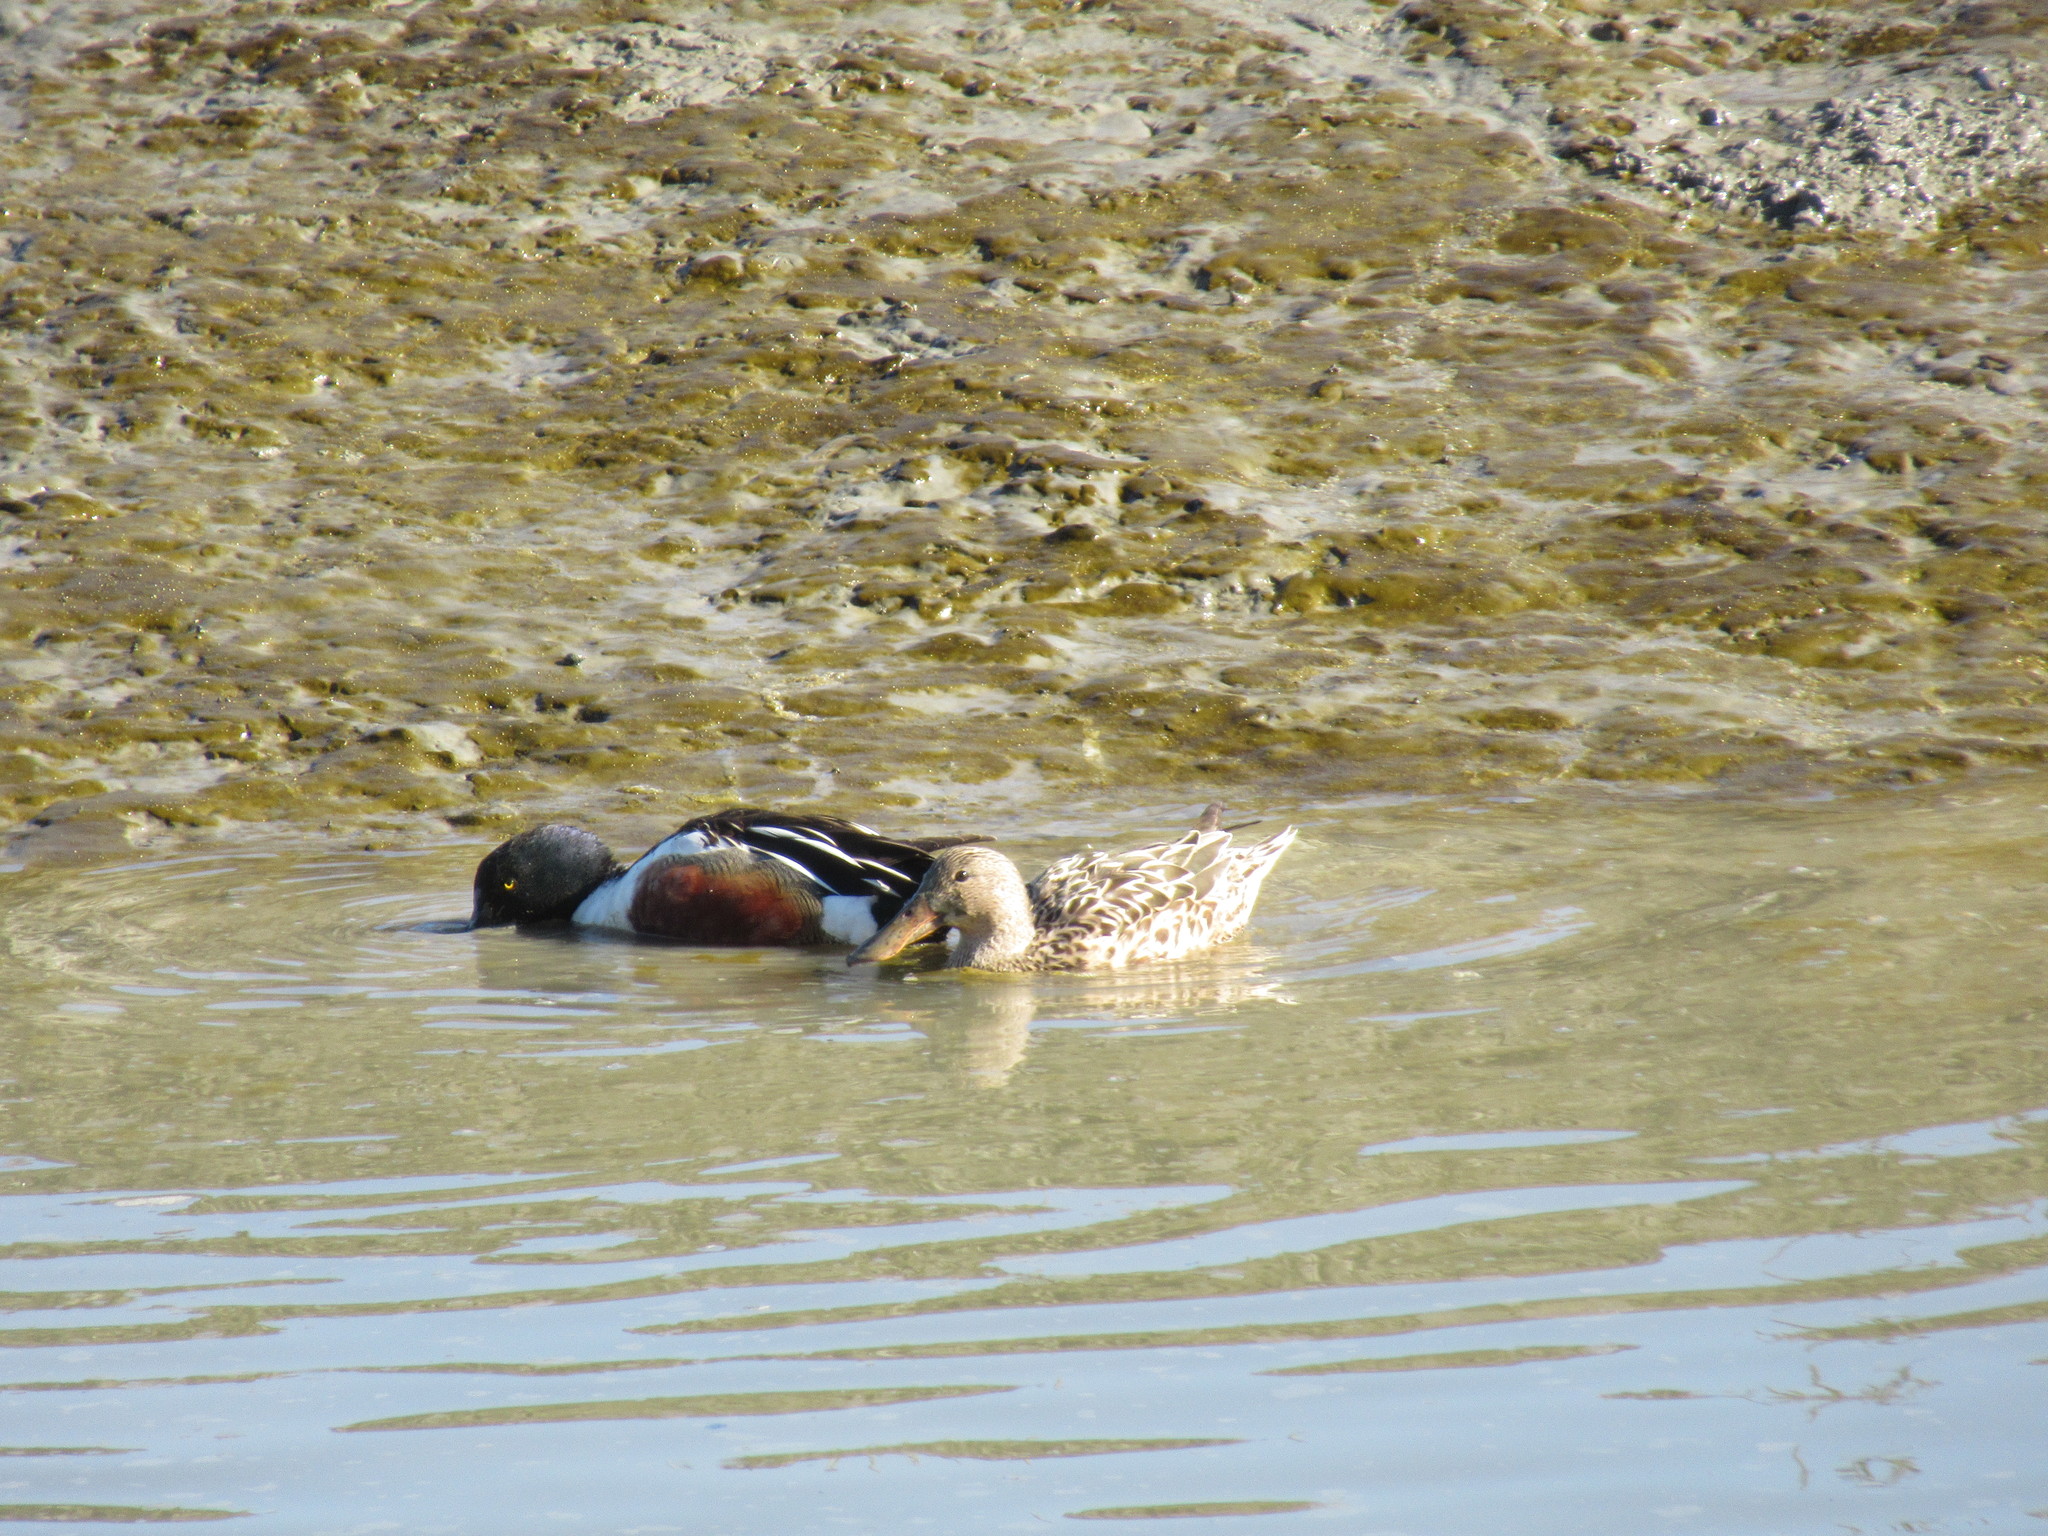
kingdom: Animalia
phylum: Chordata
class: Aves
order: Anseriformes
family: Anatidae
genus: Spatula
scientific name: Spatula clypeata
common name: Northern shoveler
